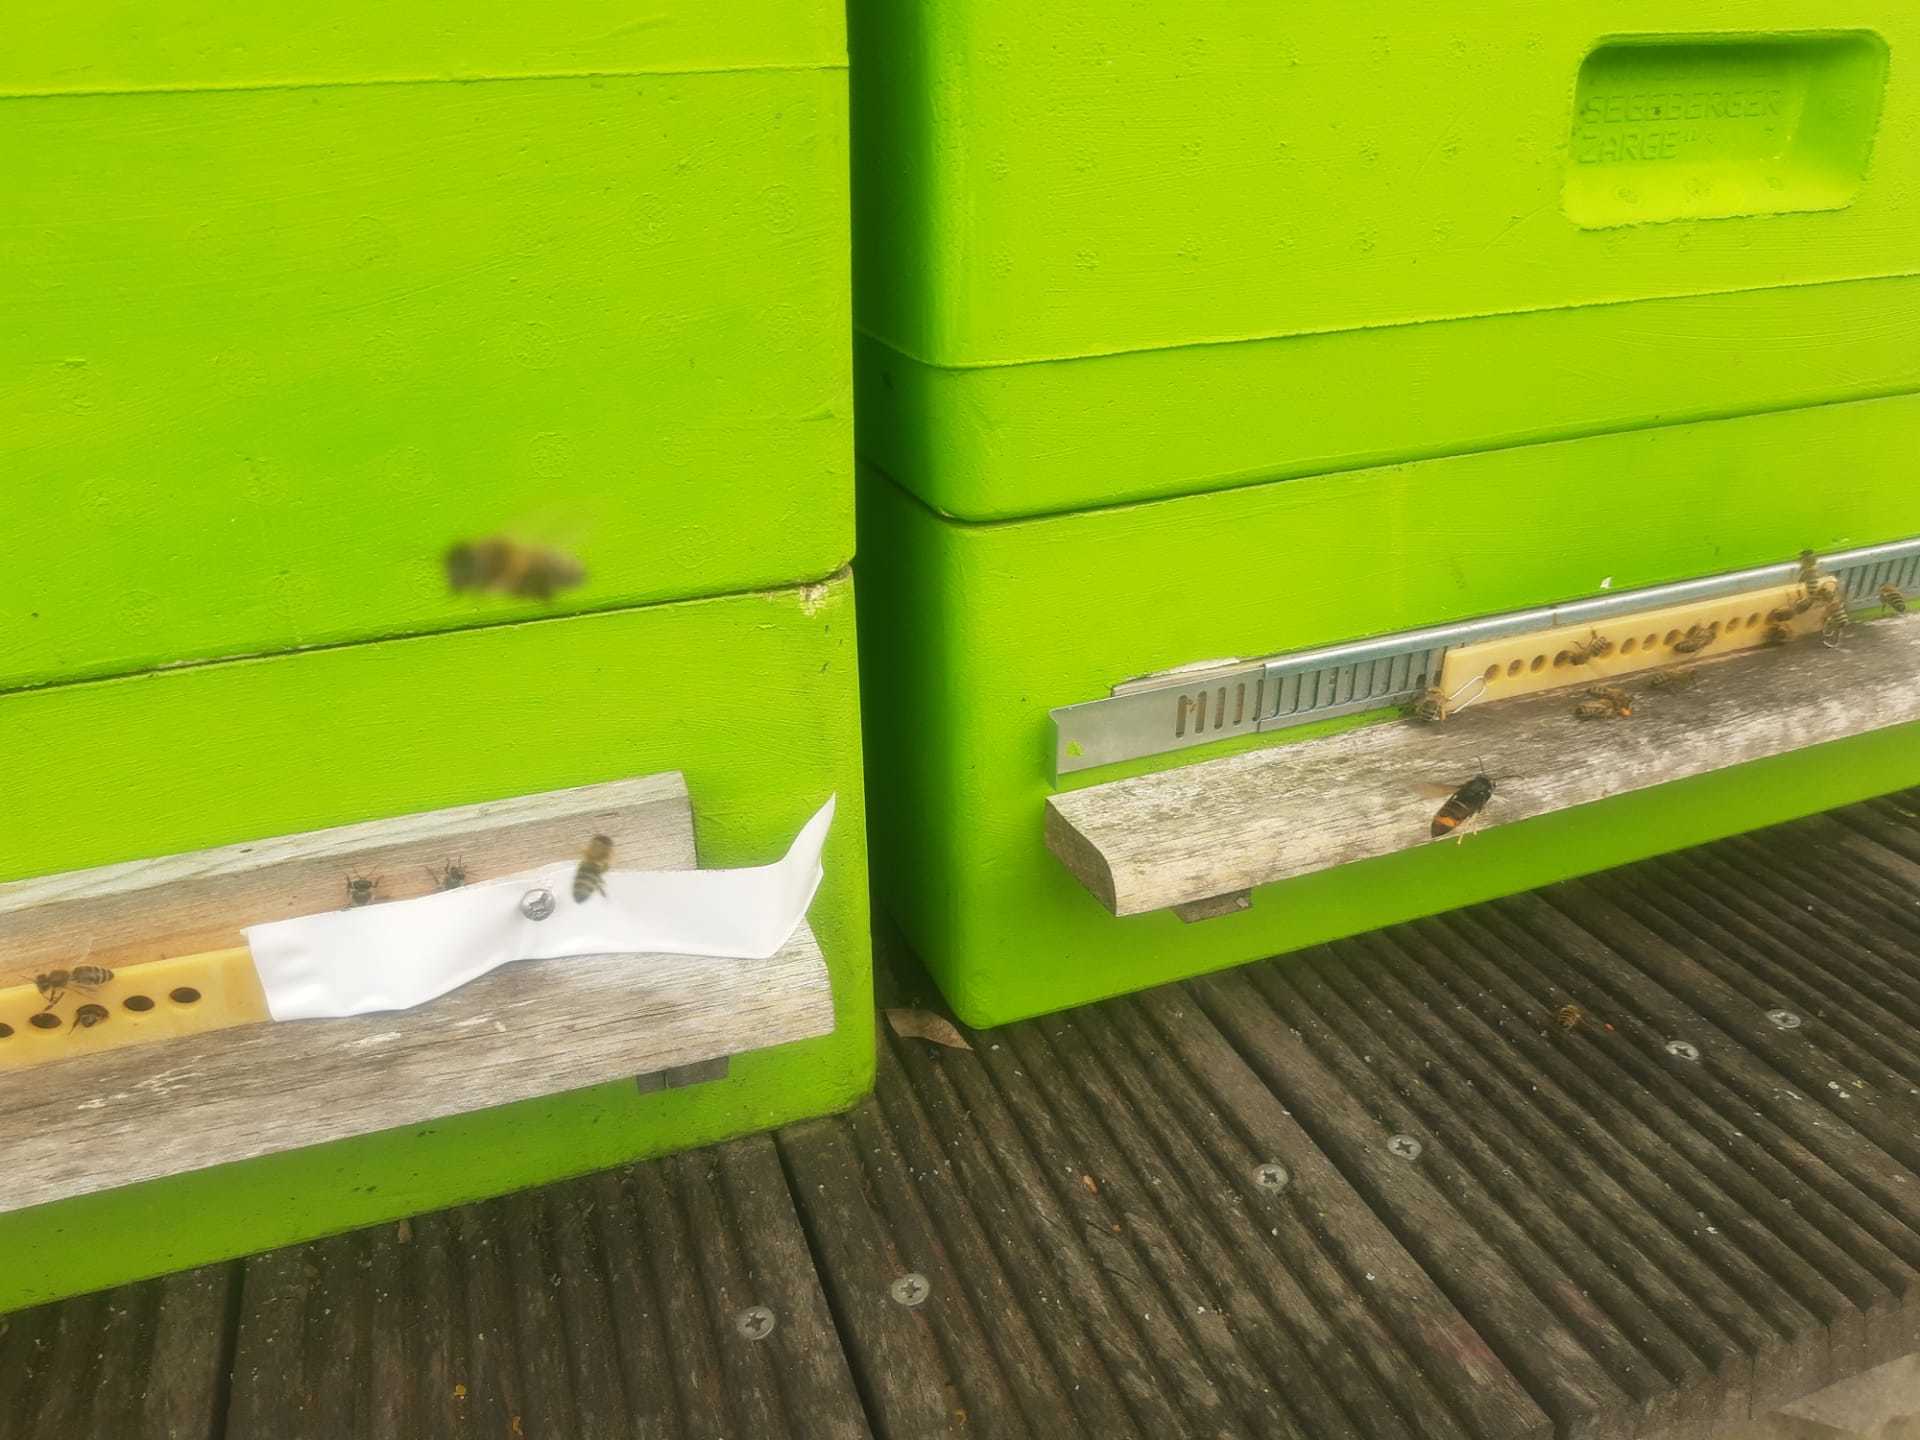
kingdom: Animalia
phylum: Arthropoda
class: Insecta
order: Hymenoptera
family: Vespidae
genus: Vespa
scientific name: Vespa velutina
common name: Asian hornet
